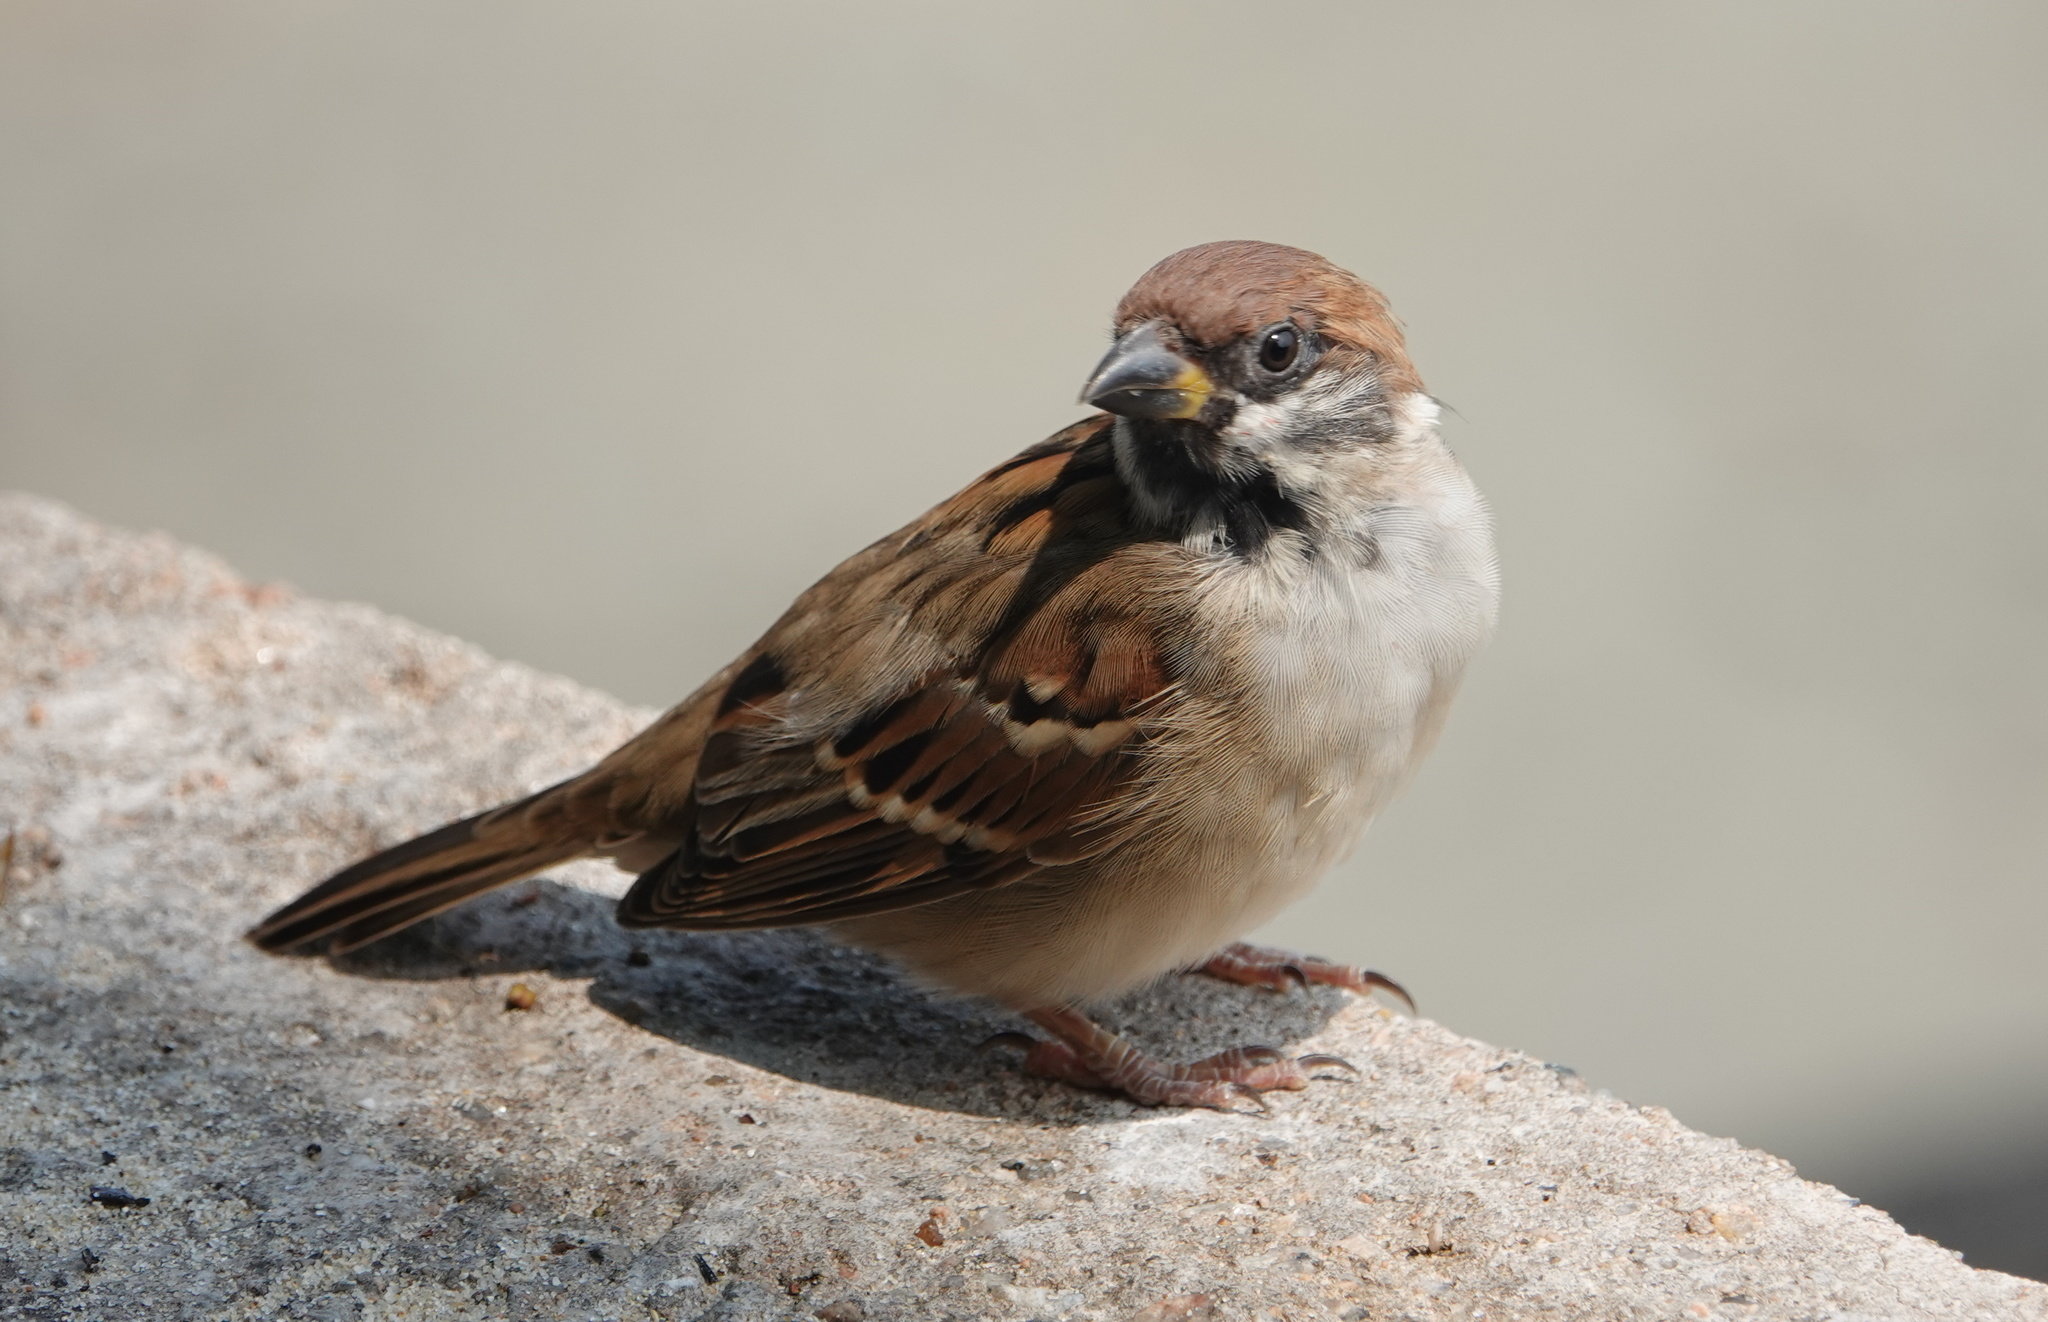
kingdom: Animalia
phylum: Chordata
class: Aves
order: Passeriformes
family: Passeridae
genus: Passer
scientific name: Passer montanus
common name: Eurasian tree sparrow
